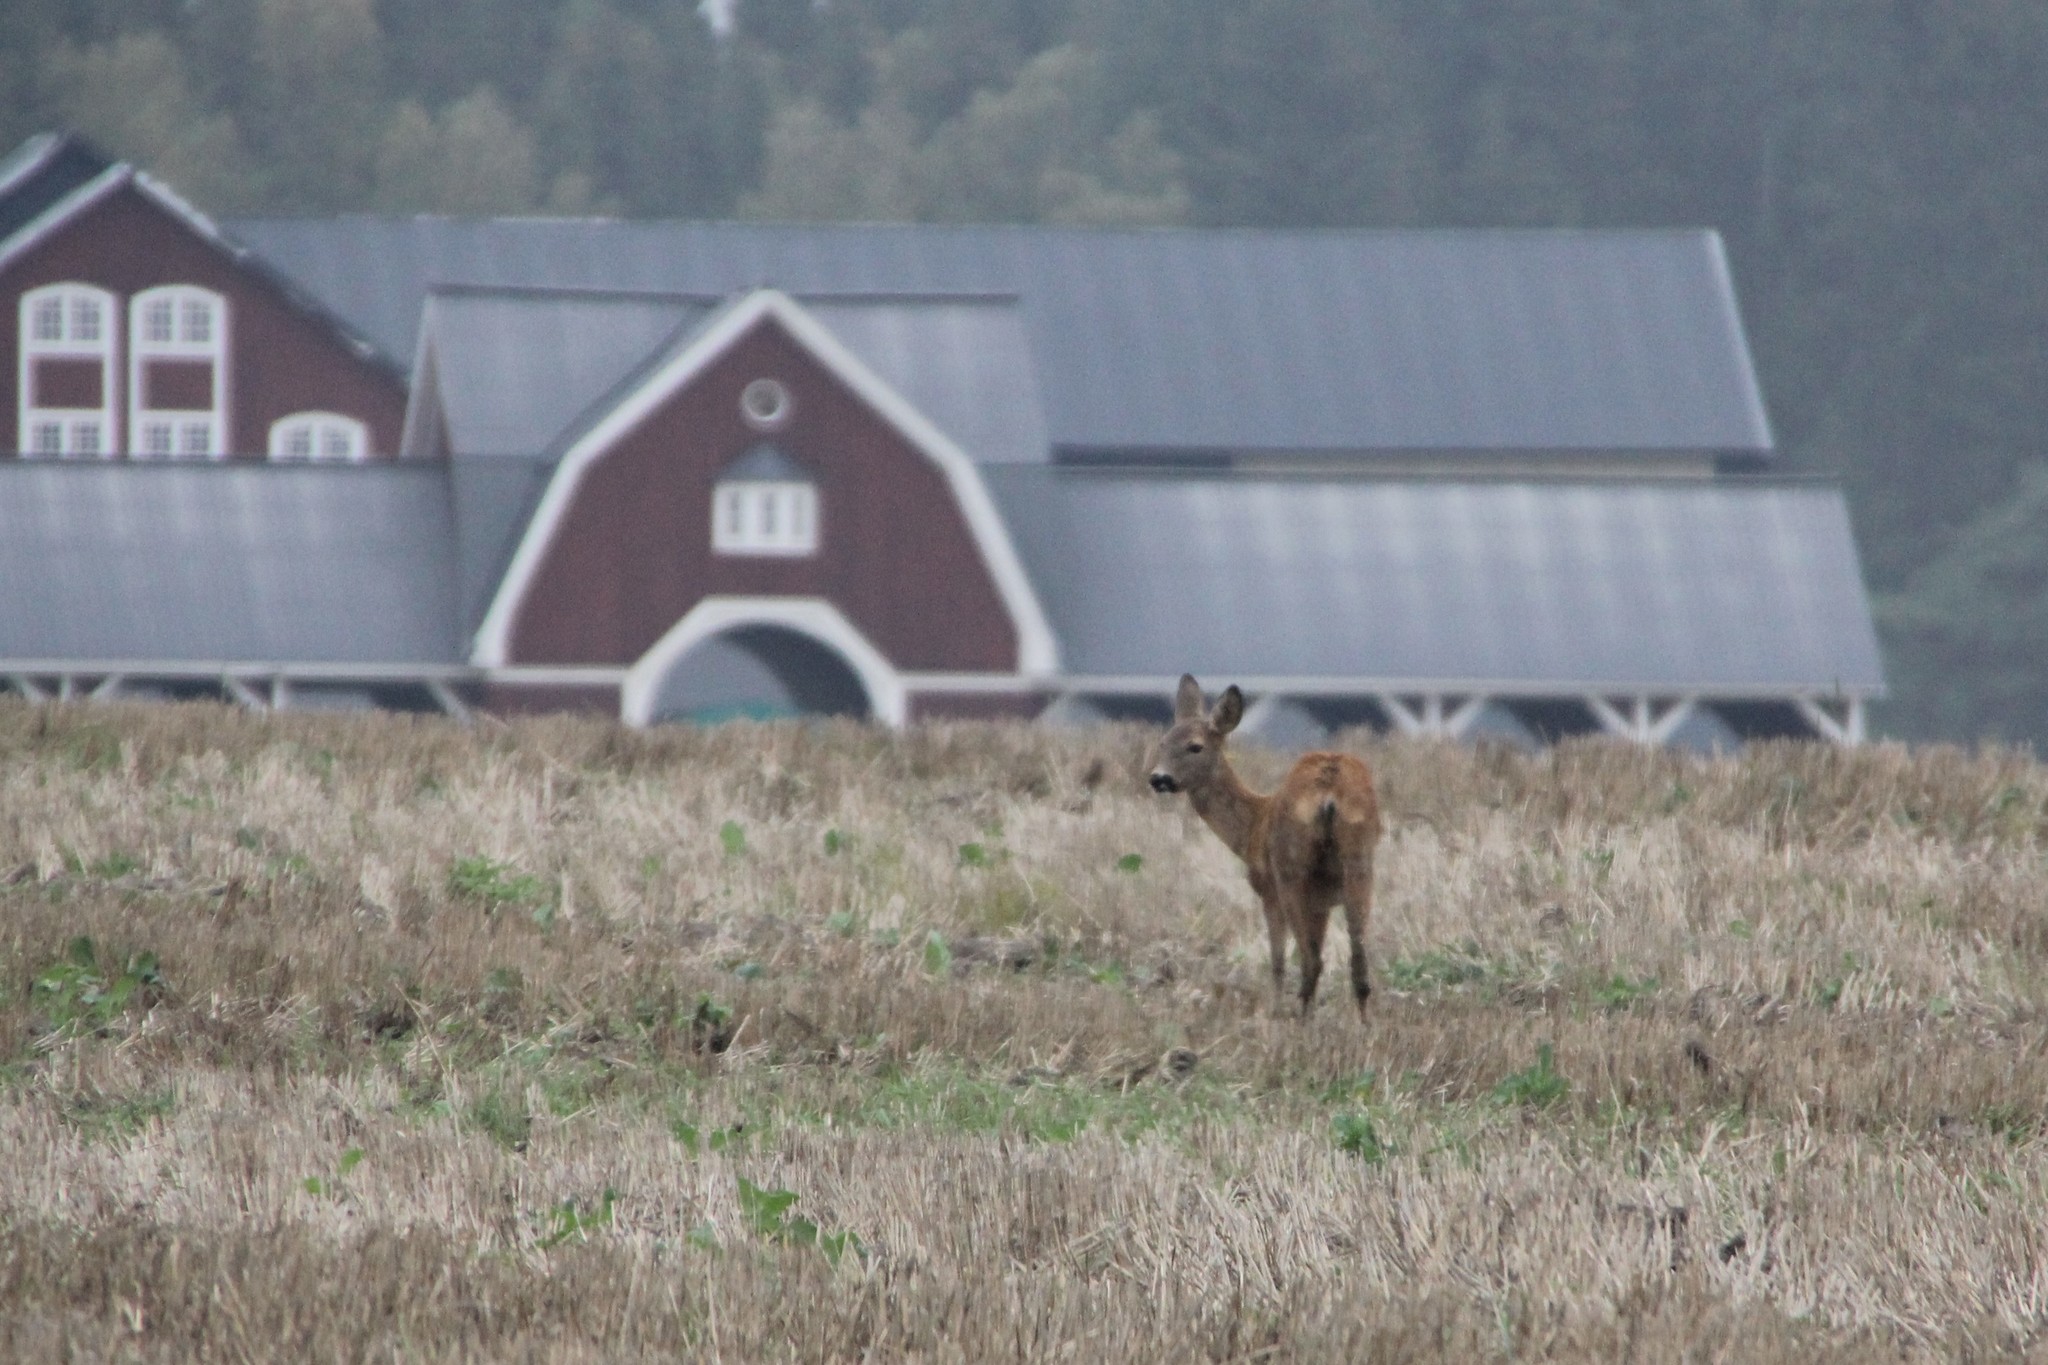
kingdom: Animalia
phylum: Chordata
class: Mammalia
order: Artiodactyla
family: Cervidae
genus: Capreolus
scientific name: Capreolus capreolus
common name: Western roe deer
